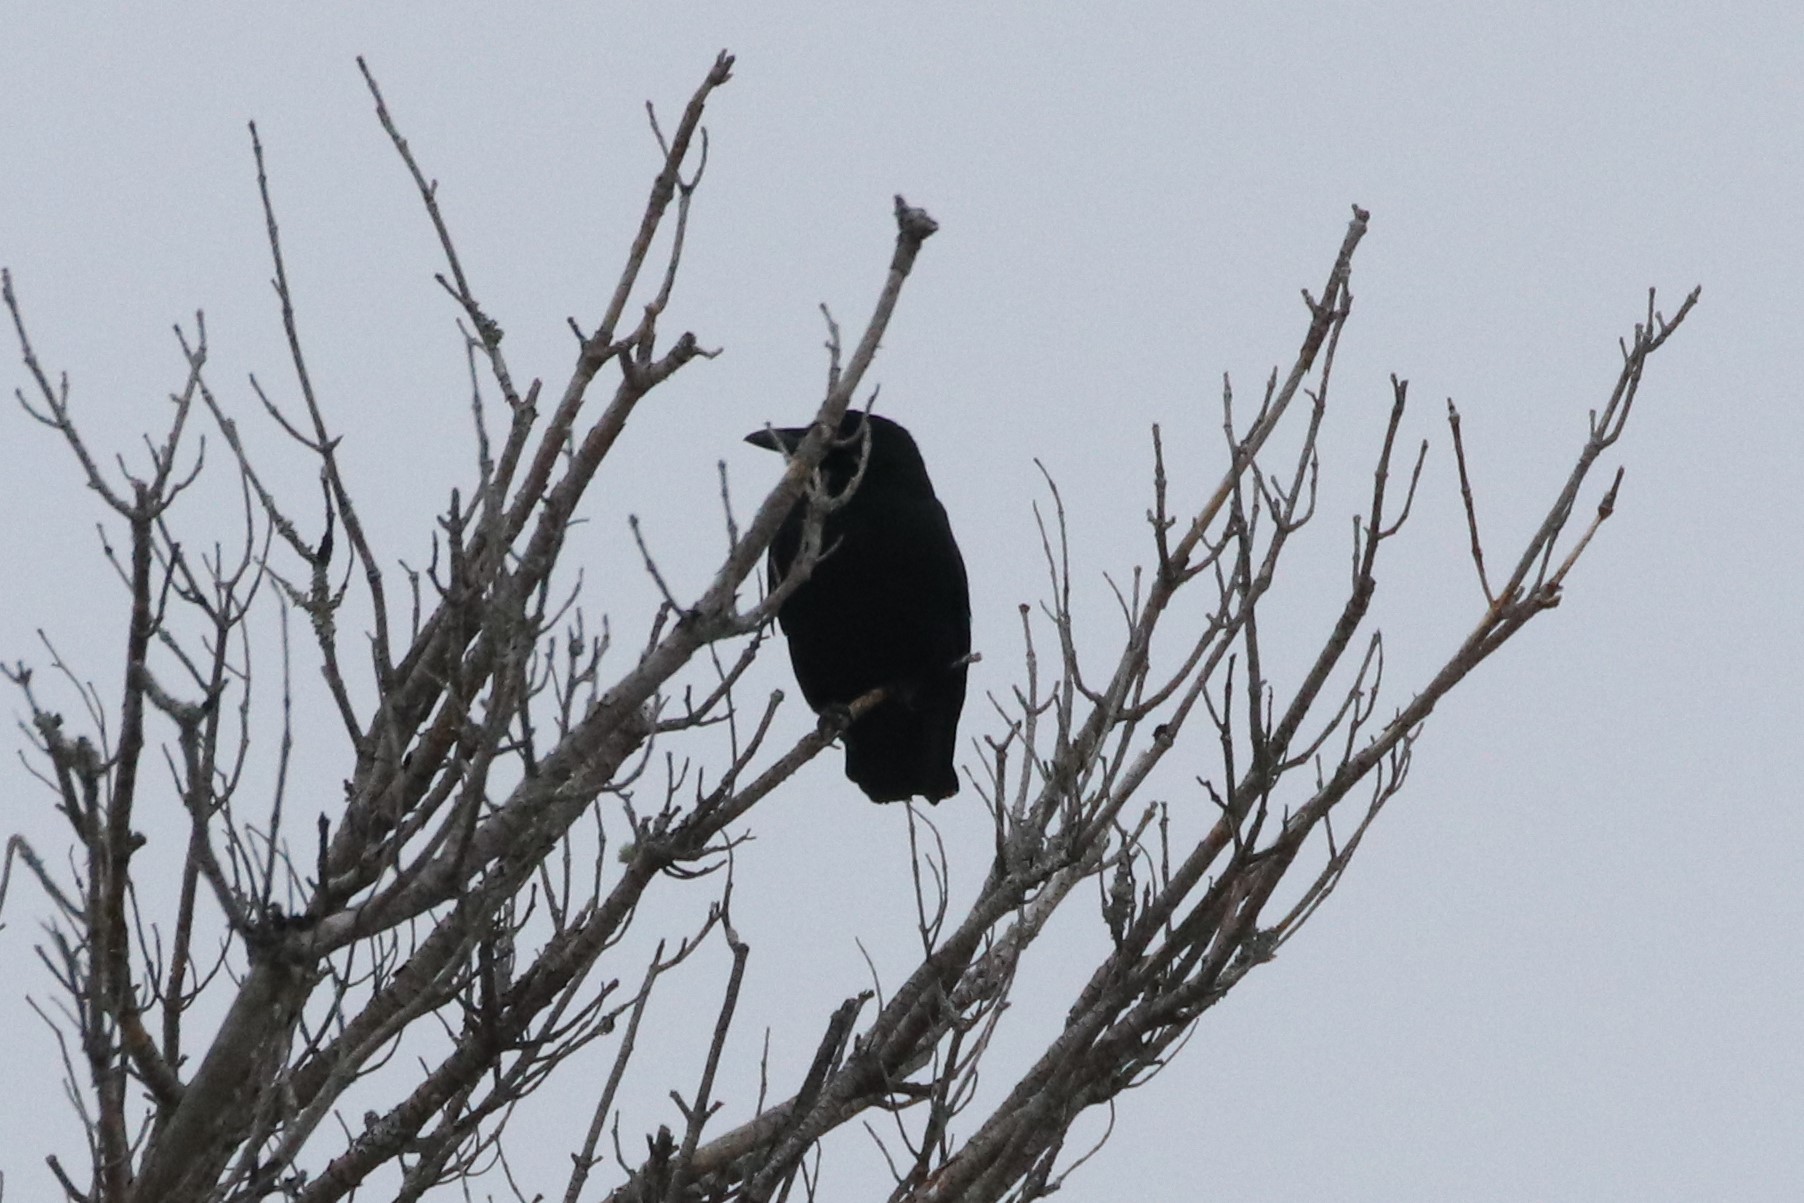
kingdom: Animalia
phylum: Chordata
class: Aves
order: Passeriformes
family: Corvidae
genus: Corvus
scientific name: Corvus brachyrhynchos
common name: American crow
